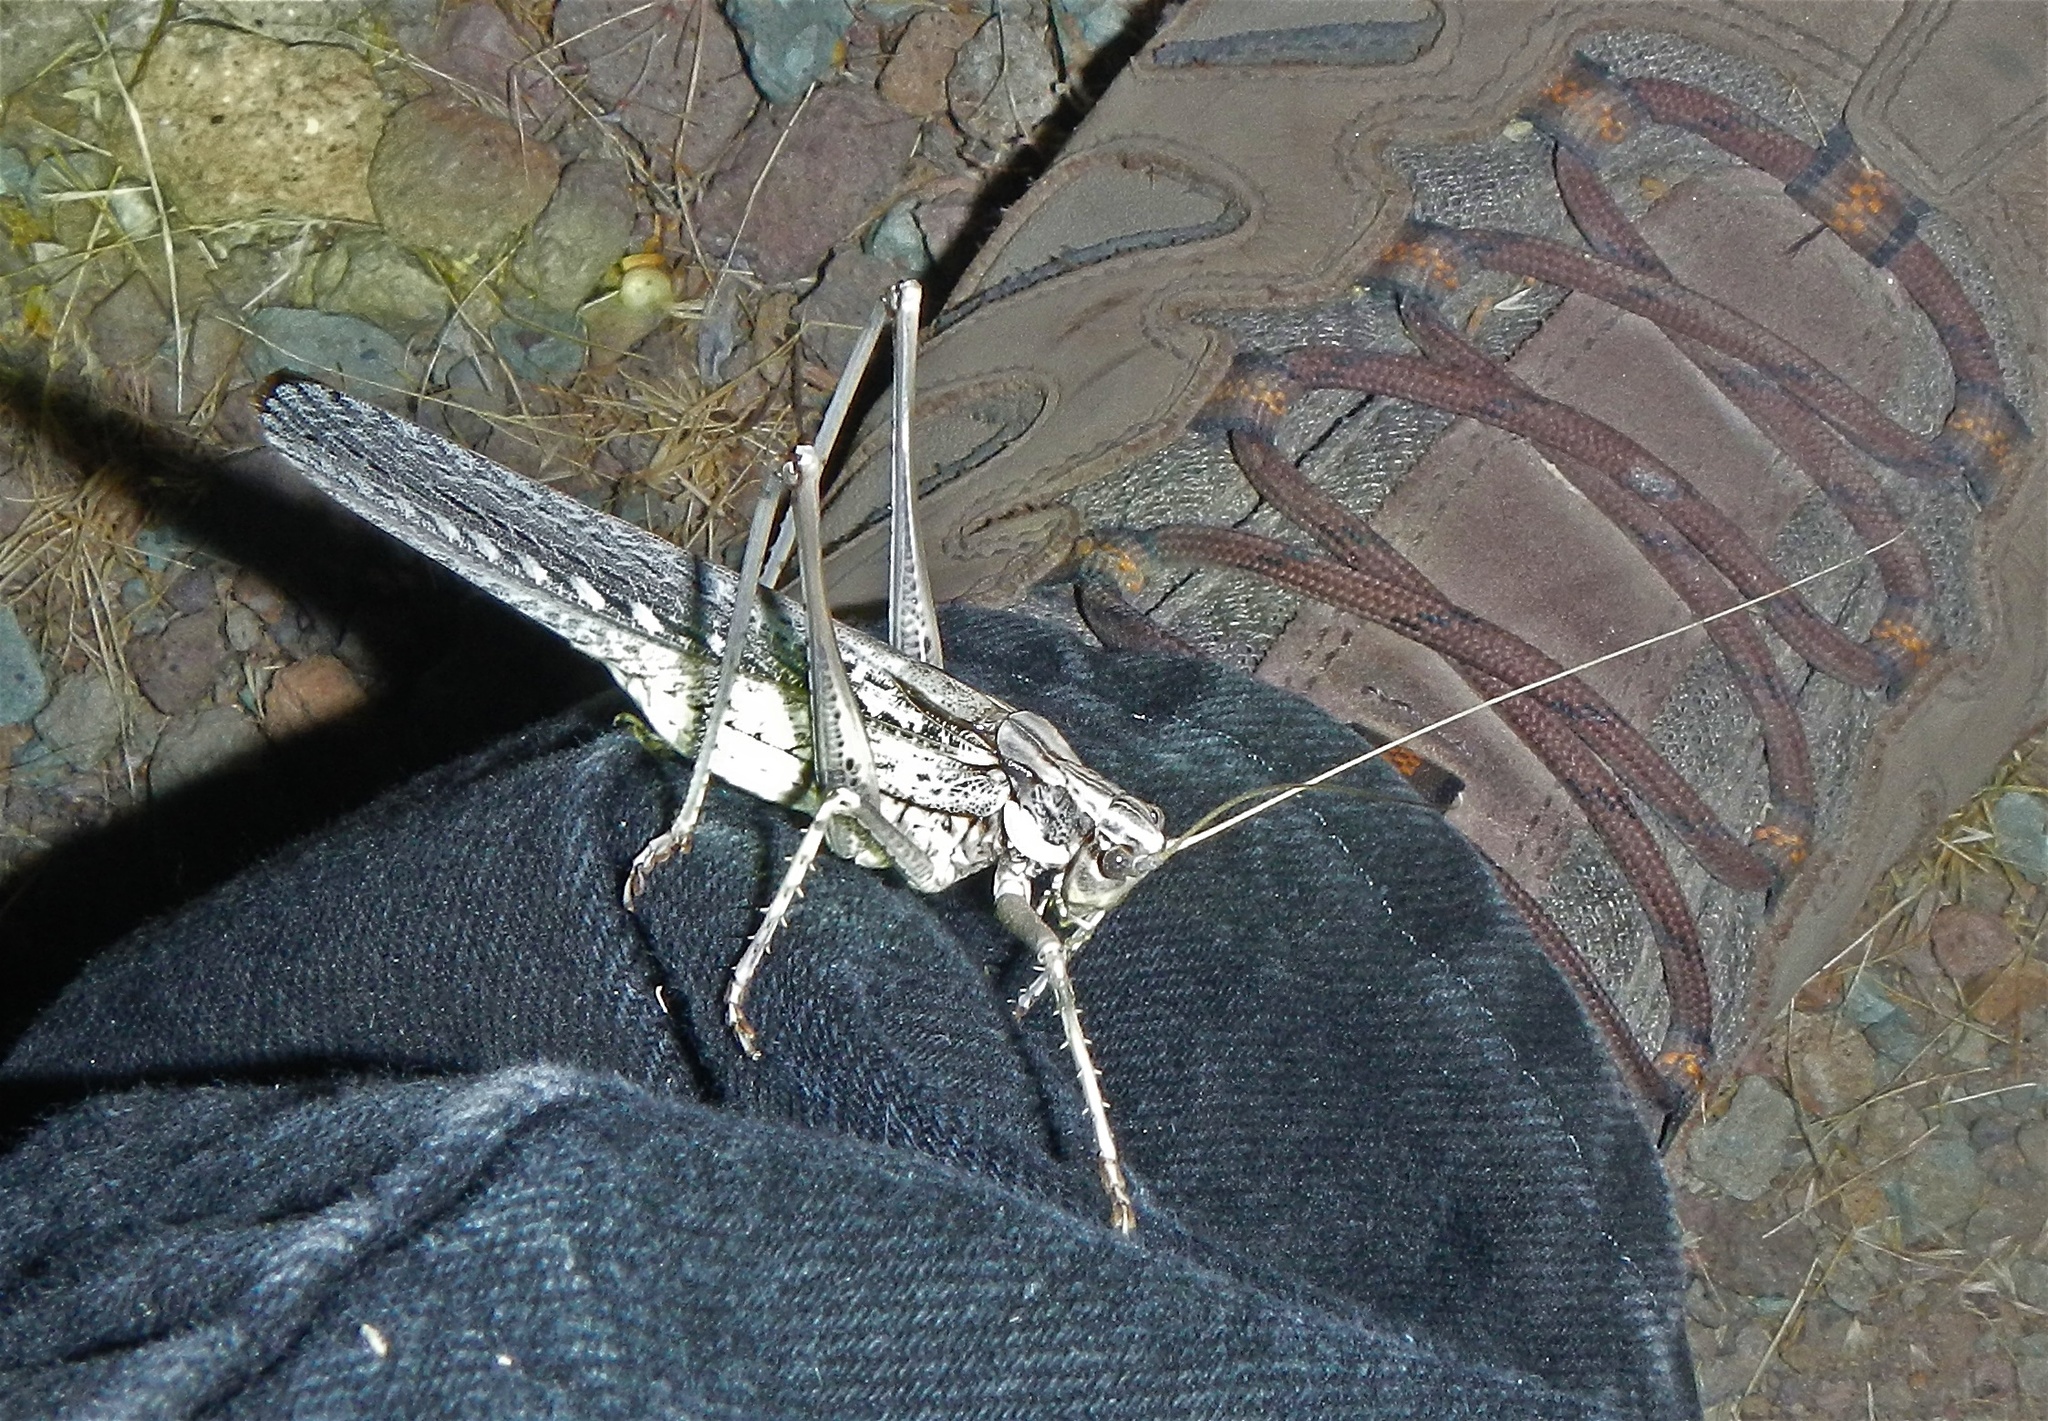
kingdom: Animalia
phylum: Arthropoda
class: Insecta
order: Orthoptera
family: Tettigoniidae
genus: Capnobotes
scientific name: Capnobotes fuliginosus
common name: Sooty longwing
